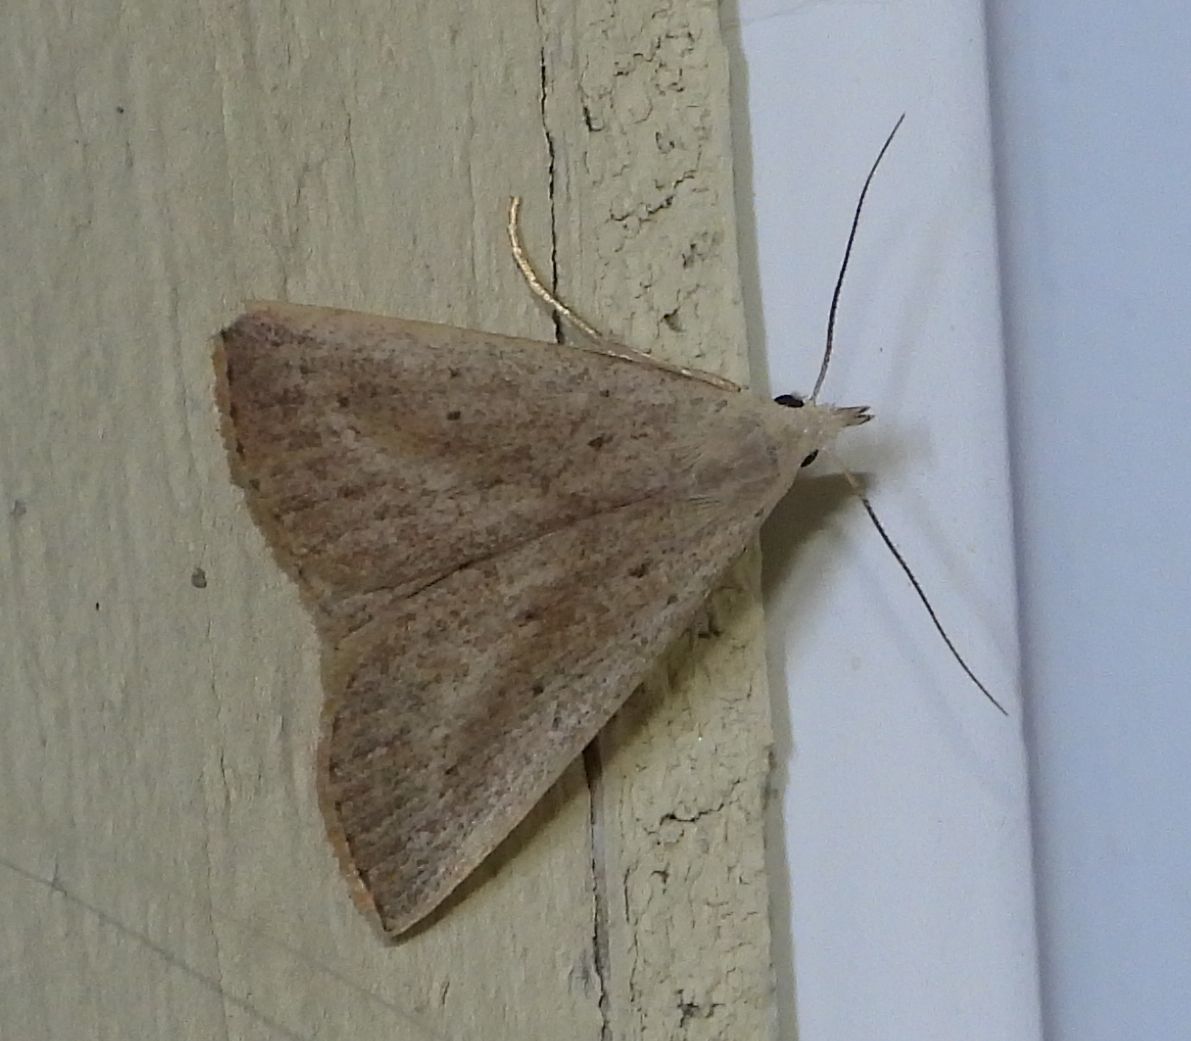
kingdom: Animalia
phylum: Arthropoda
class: Insecta
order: Lepidoptera
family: Erebidae
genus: Macrochilo
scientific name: Macrochilo louisiana
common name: Louisiana macrochilo
